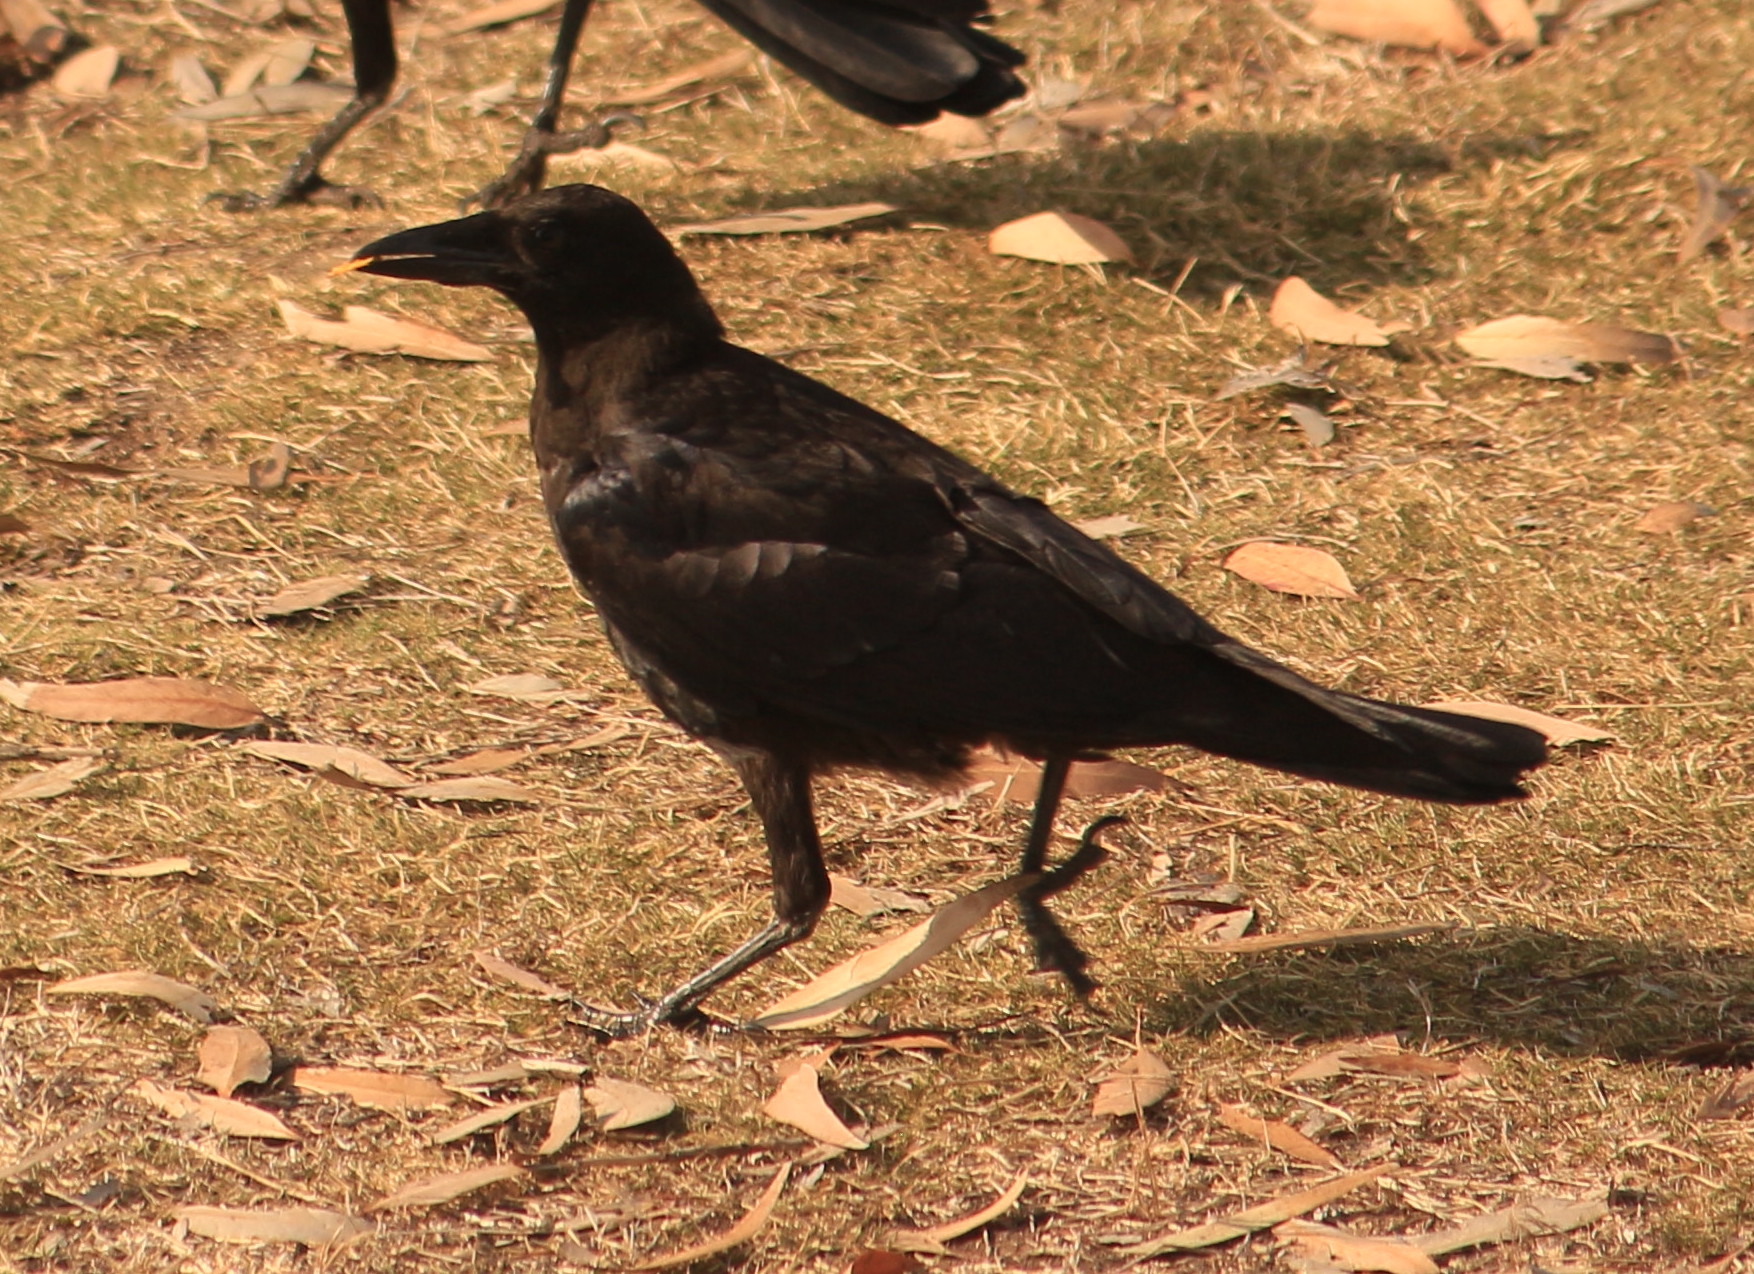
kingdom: Animalia
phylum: Chordata
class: Aves
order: Passeriformes
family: Corvidae
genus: Corvus
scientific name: Corvus brachyrhynchos
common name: American crow
